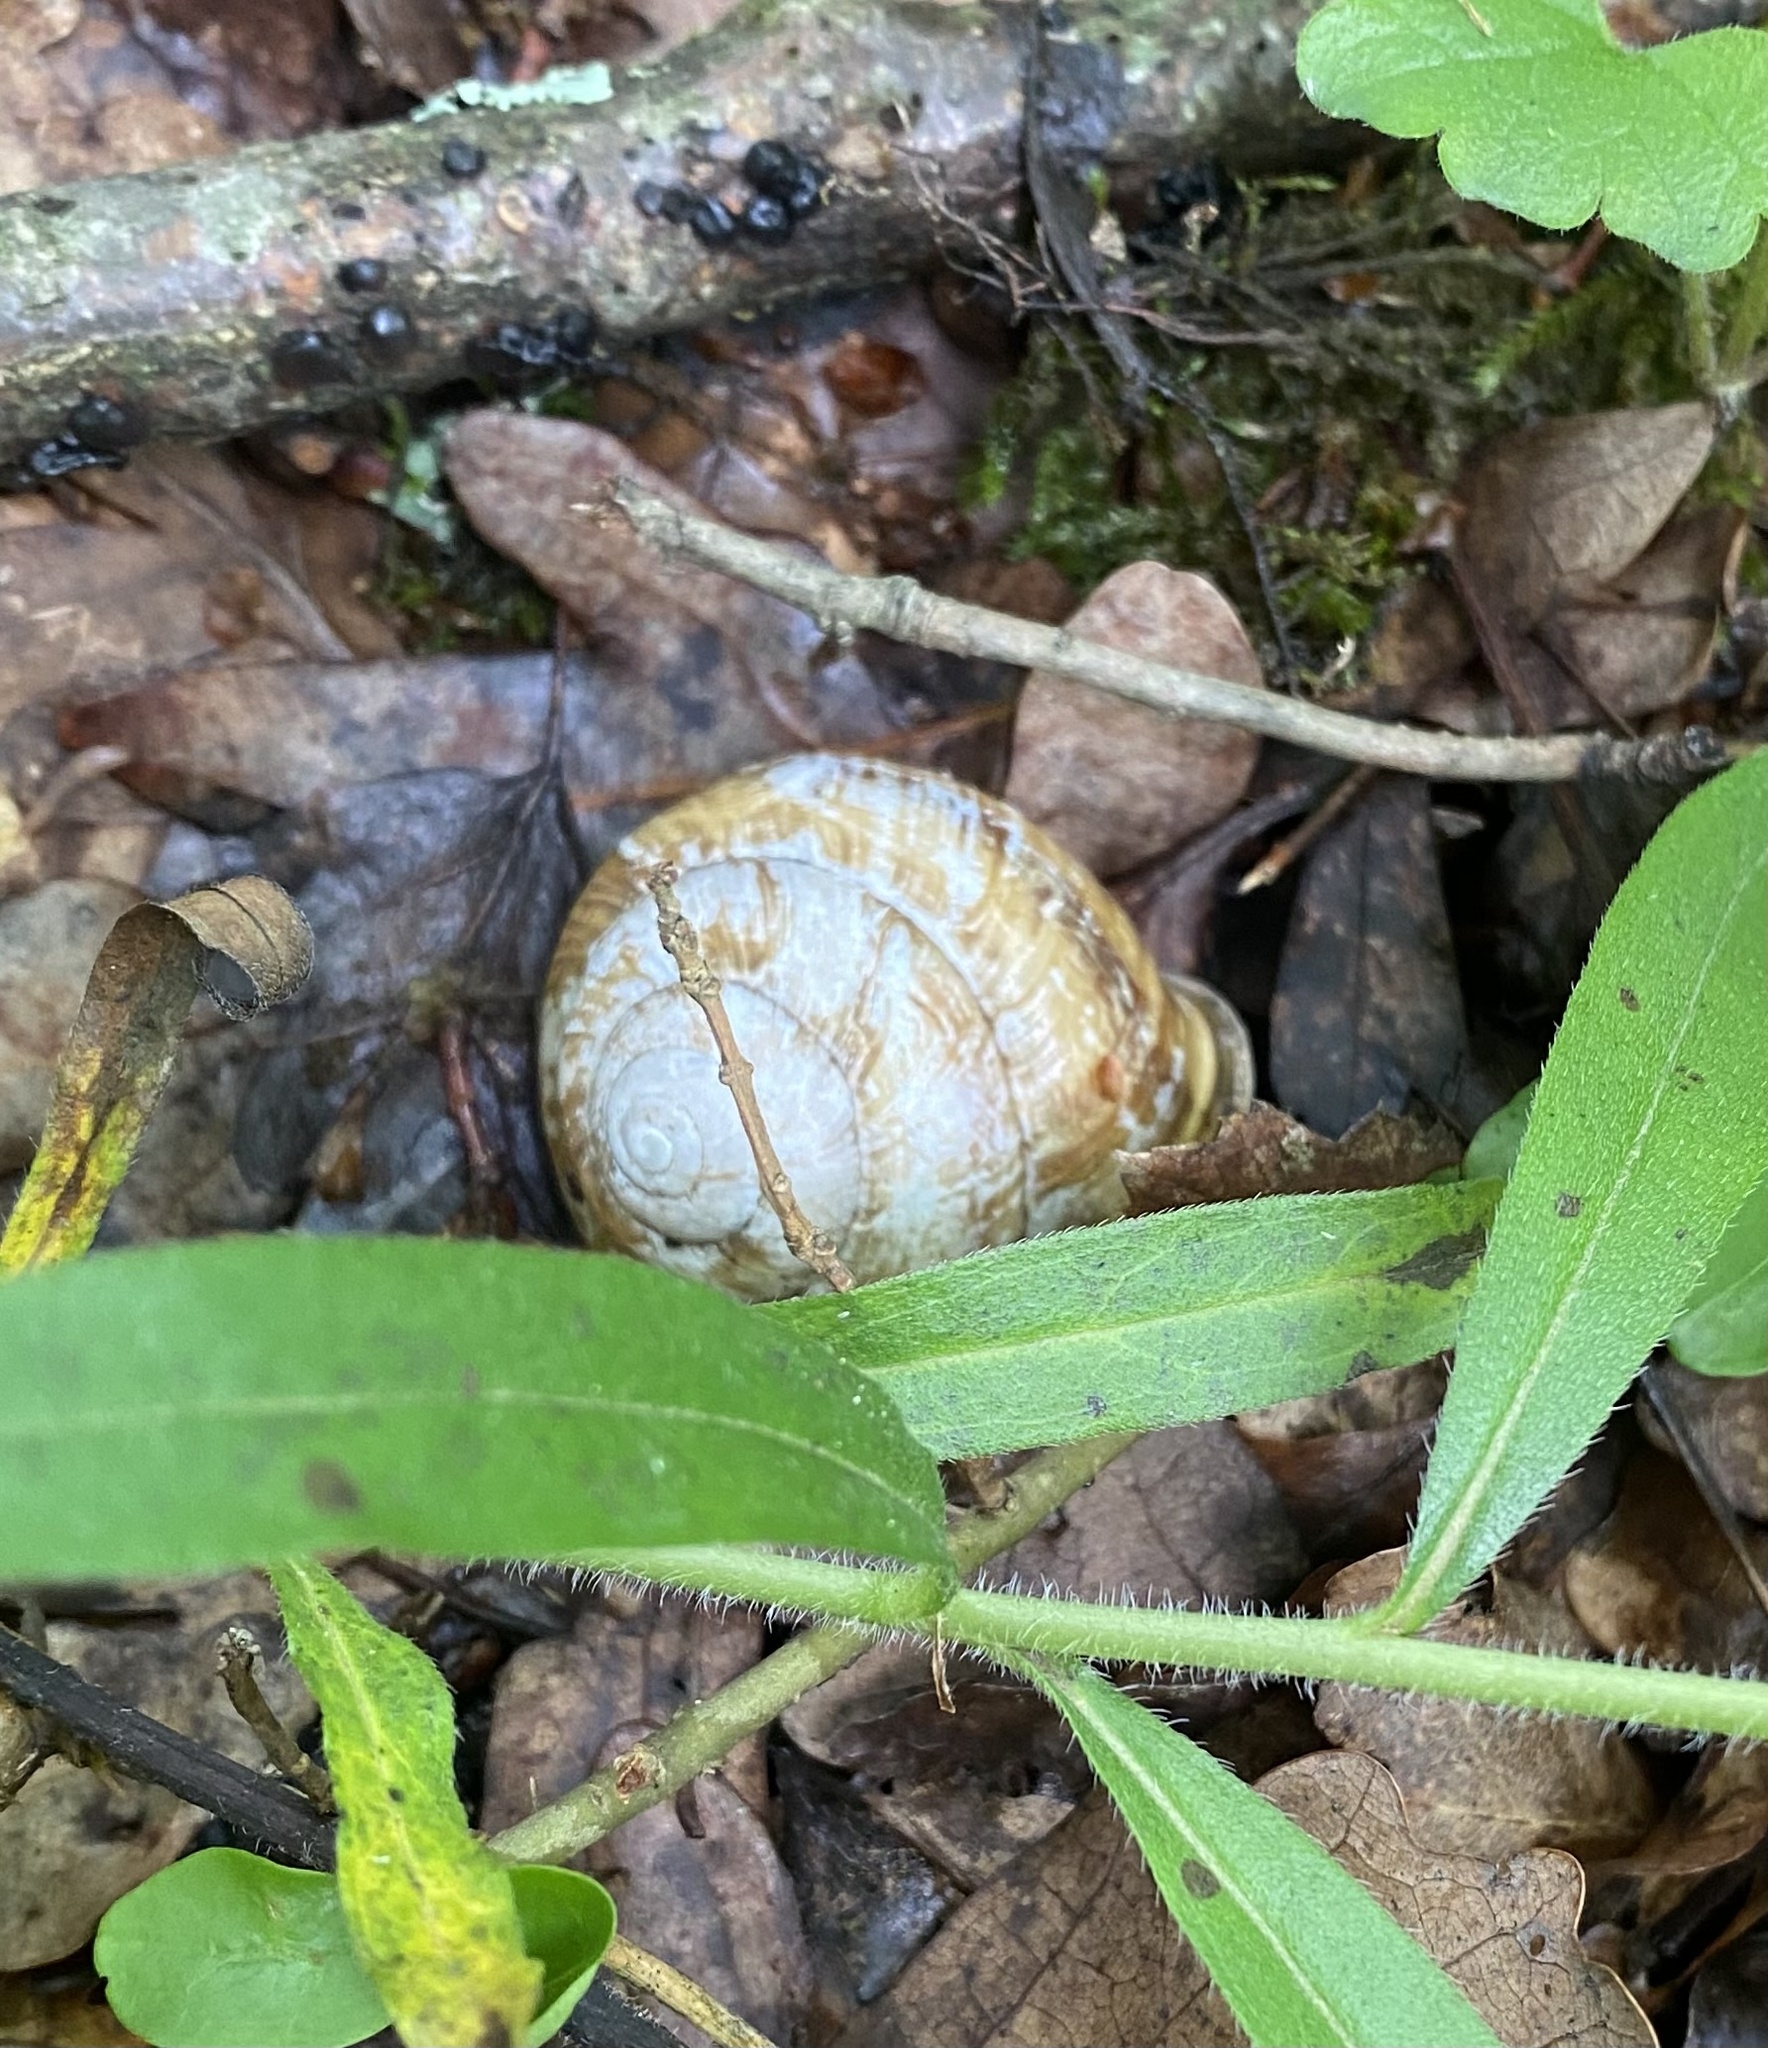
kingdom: Animalia
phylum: Mollusca
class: Gastropoda
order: Stylommatophora
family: Helicidae
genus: Caucasotachea
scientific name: Caucasotachea atrolabiata
